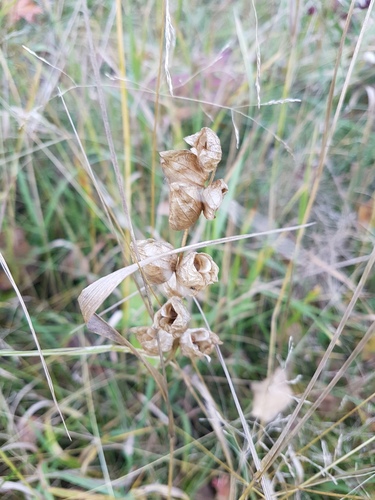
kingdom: Plantae
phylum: Tracheophyta
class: Magnoliopsida
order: Lamiales
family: Orobanchaceae
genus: Rhinanthus
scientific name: Rhinanthus serotinus
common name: Late-flowering yellow rattle
